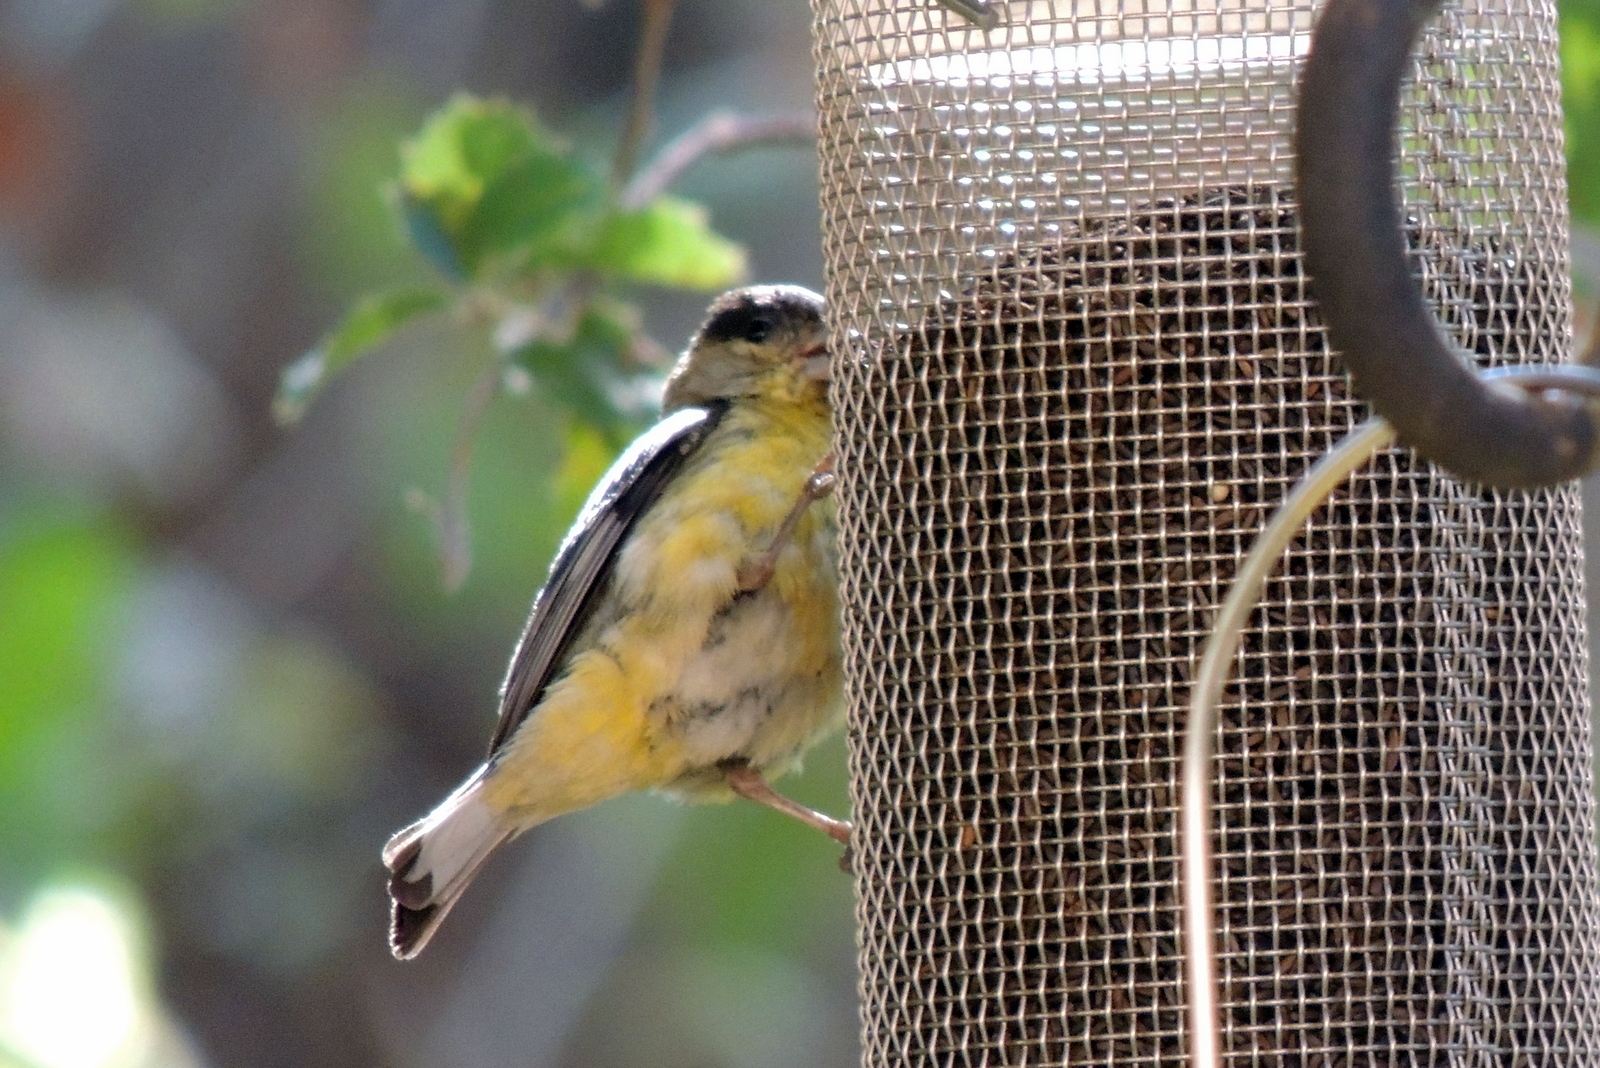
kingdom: Animalia
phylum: Chordata
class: Aves
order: Passeriformes
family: Fringillidae
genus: Spinus
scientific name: Spinus psaltria
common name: Lesser goldfinch
